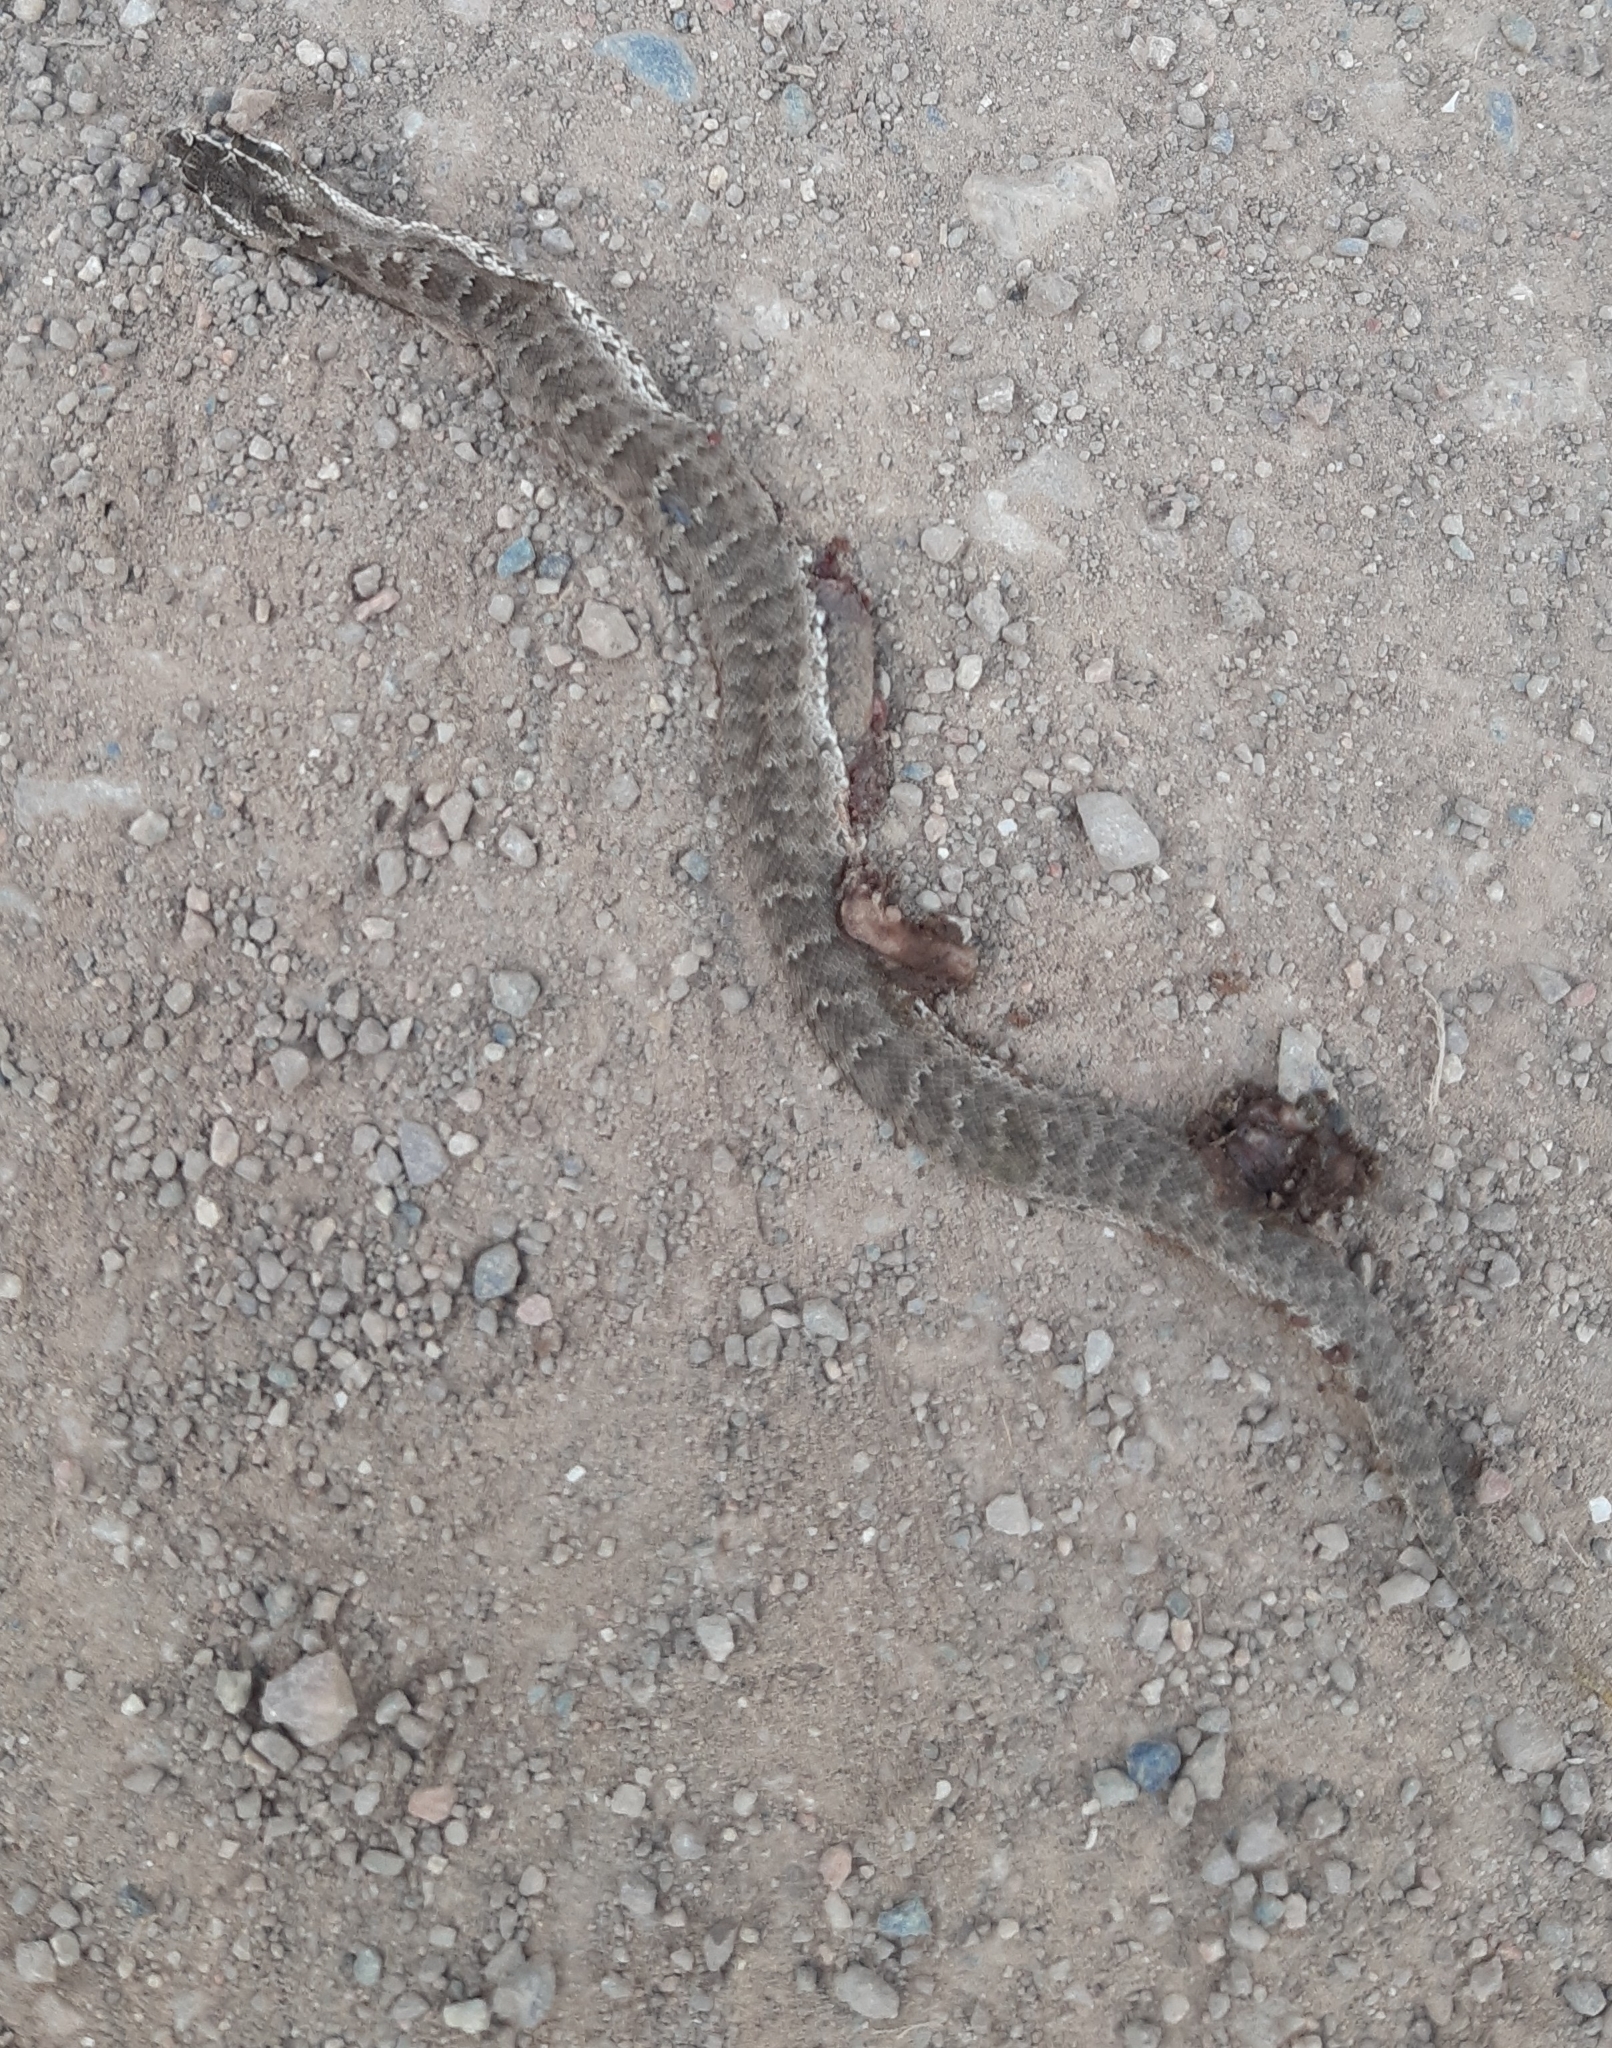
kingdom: Animalia
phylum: Chordata
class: Squamata
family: Viperidae
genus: Gloydius
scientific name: Gloydius halys
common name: Halys pit viper
